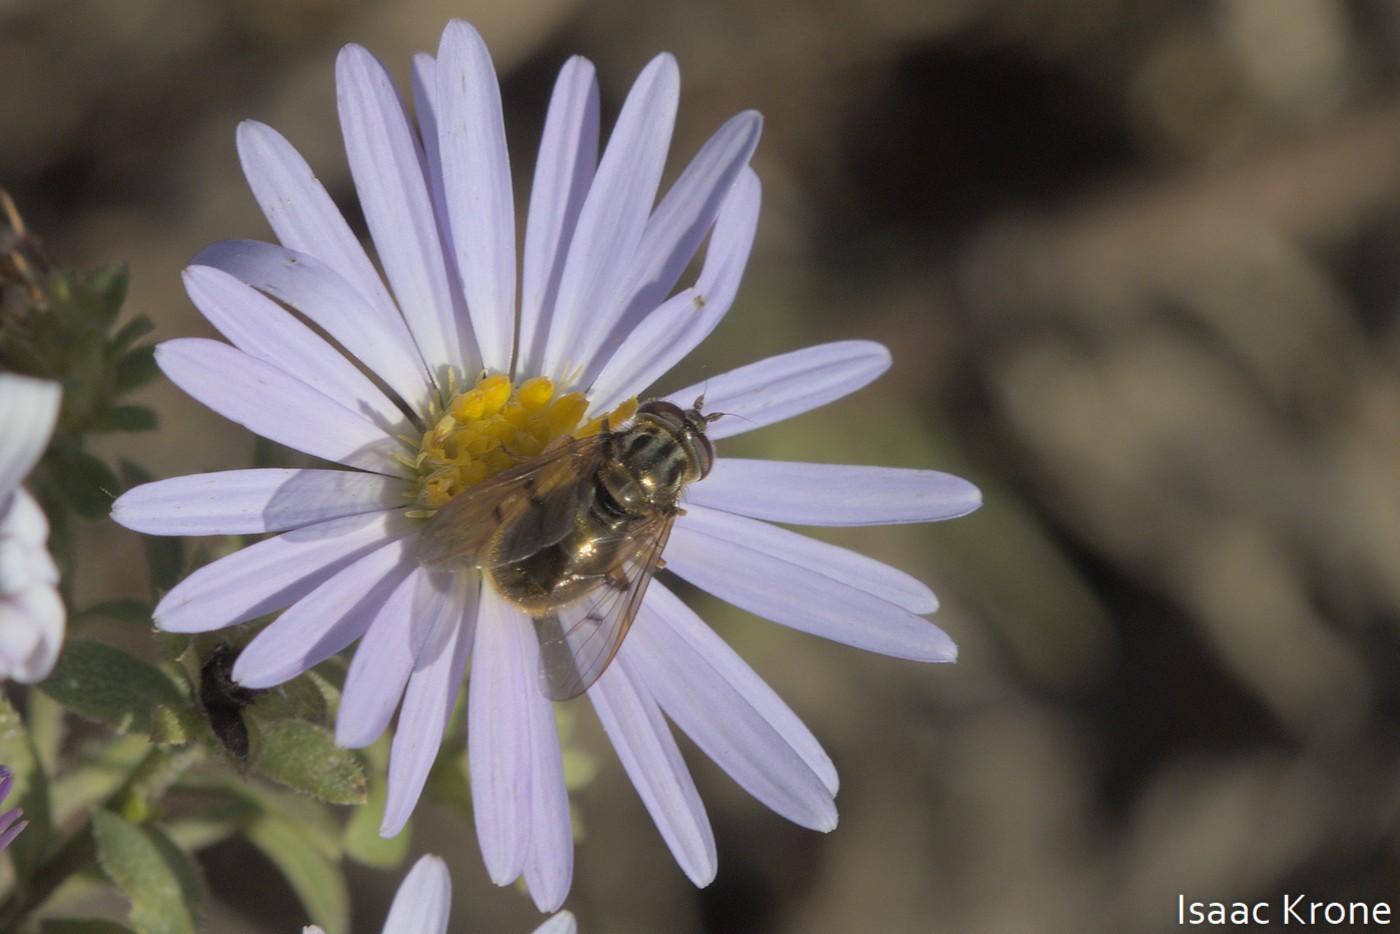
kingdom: Animalia
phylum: Arthropoda
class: Insecta
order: Diptera
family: Syrphidae
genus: Ferdinandea
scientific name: Ferdinandea croesus
